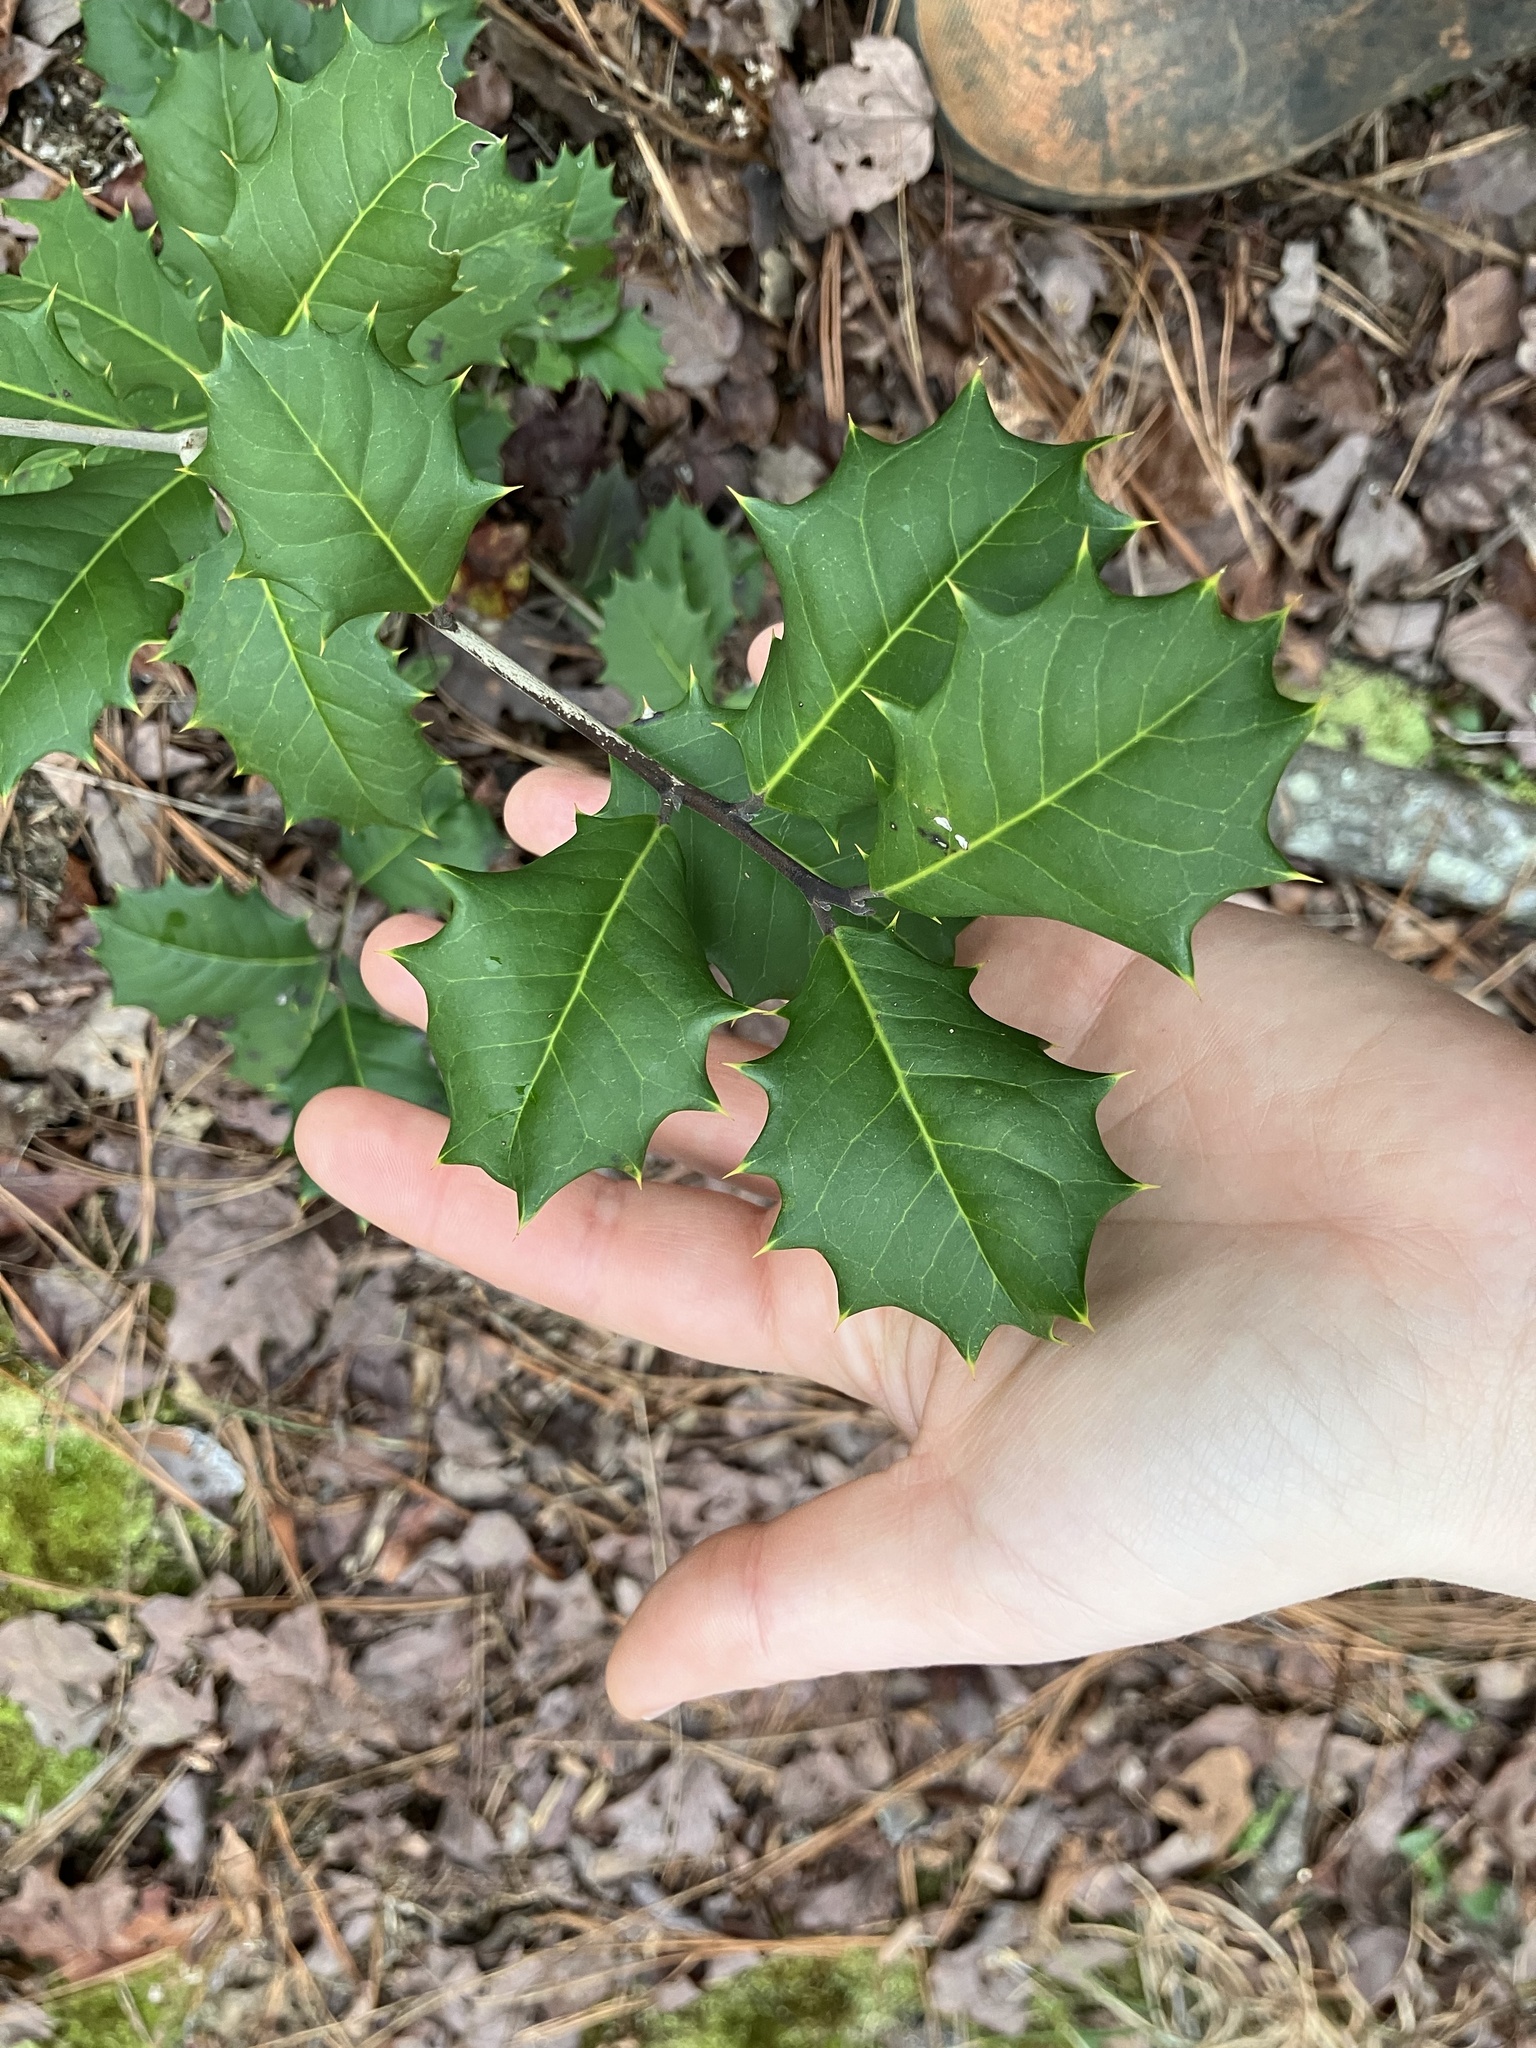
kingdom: Plantae
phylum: Tracheophyta
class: Magnoliopsida
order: Aquifoliales
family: Aquifoliaceae
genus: Ilex
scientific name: Ilex opaca
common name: American holly
